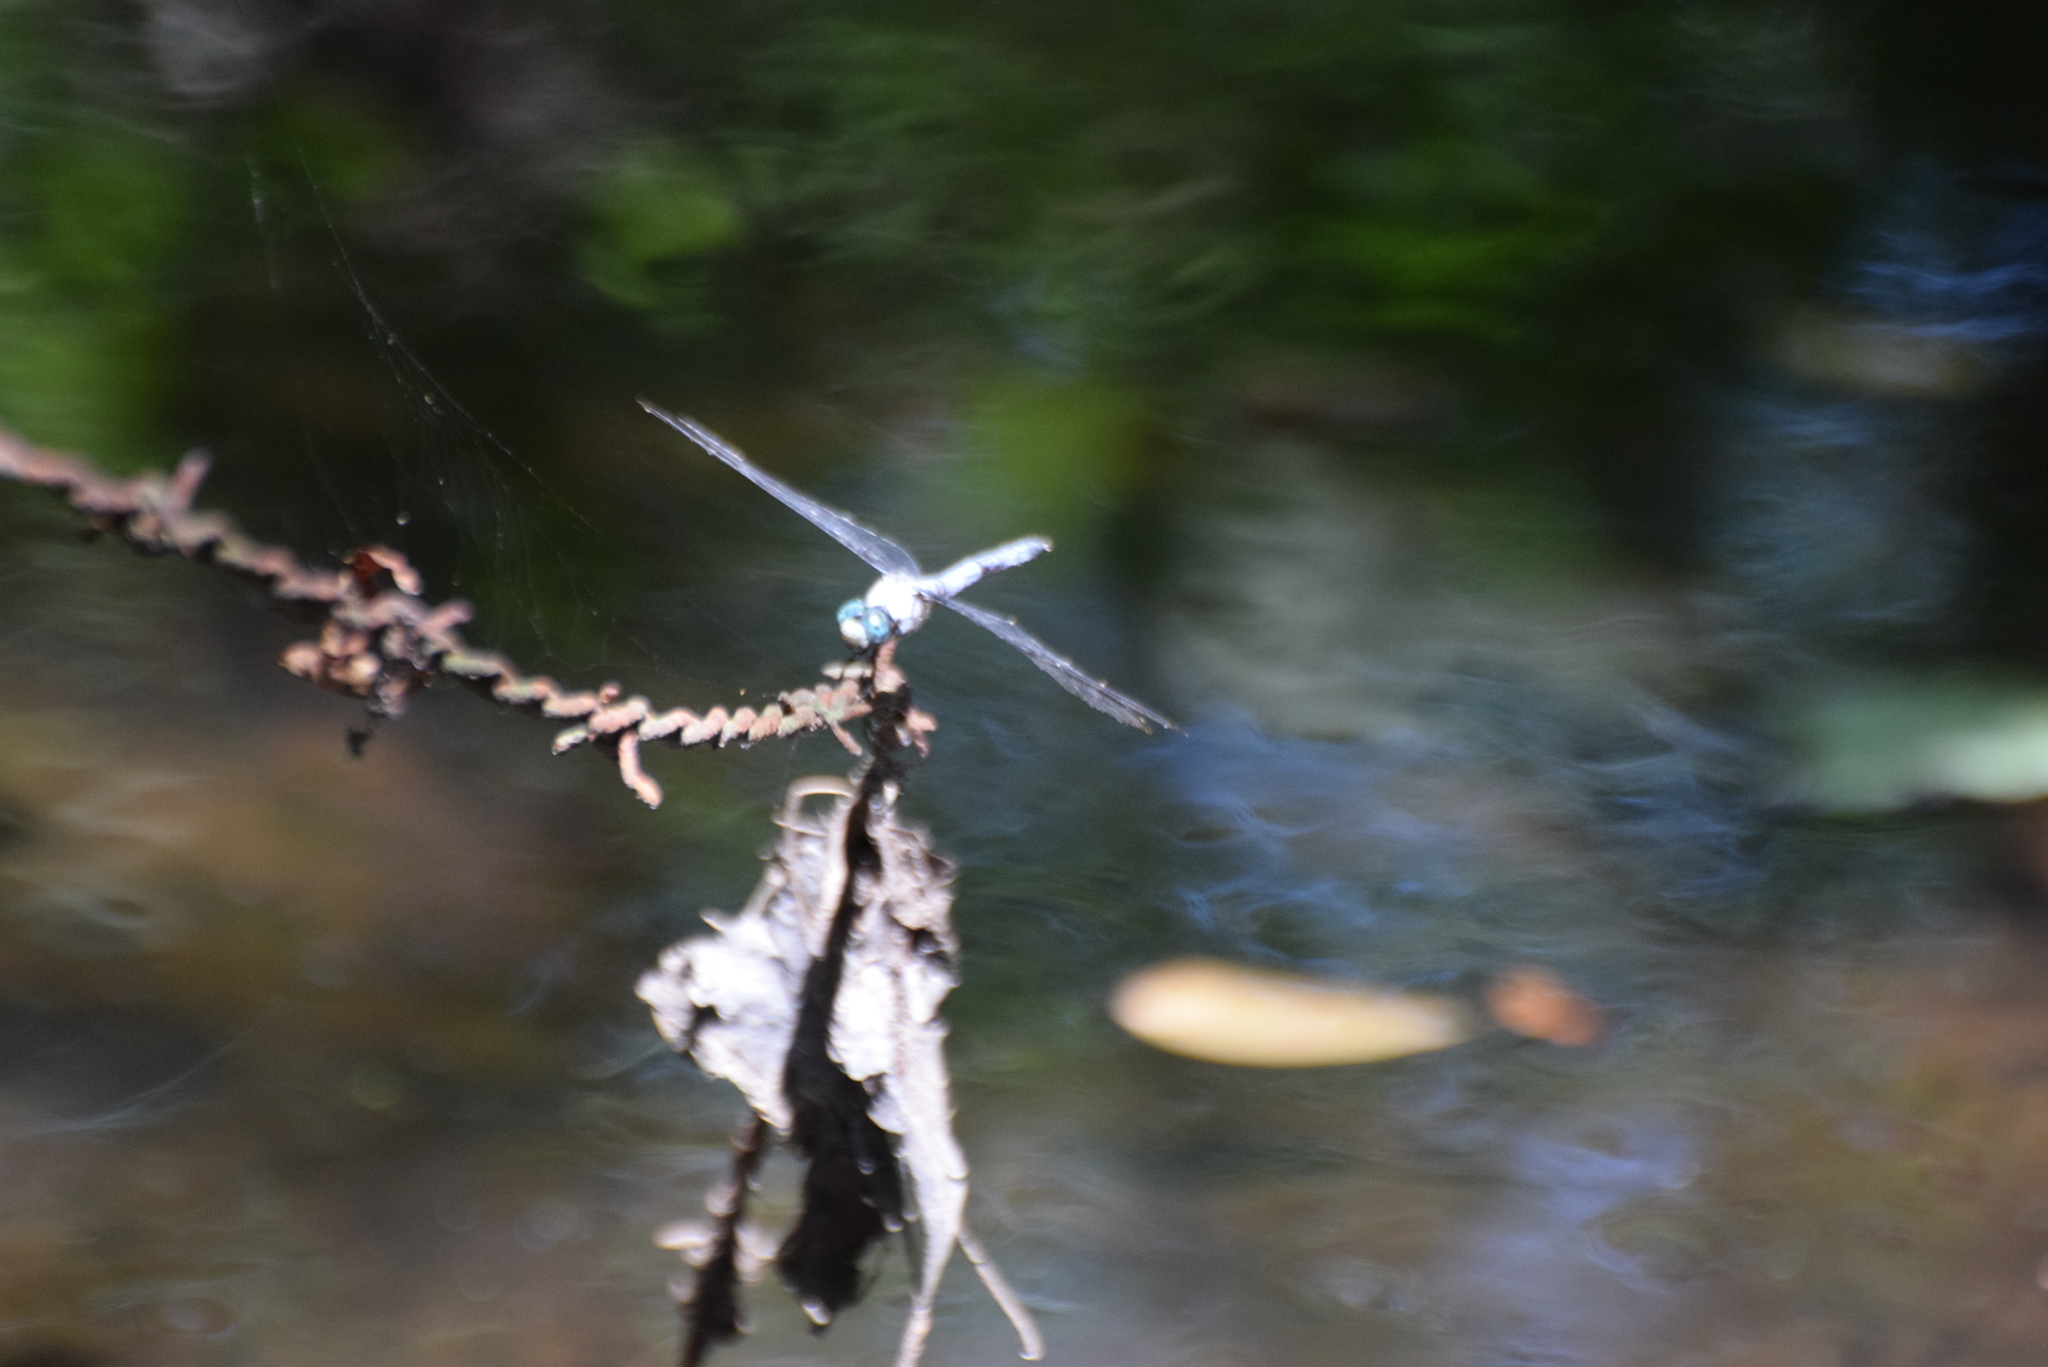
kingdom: Animalia
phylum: Arthropoda
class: Insecta
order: Odonata
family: Libellulidae
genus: Libellula
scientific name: Libellula vibrans
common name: Great blue skimmer
